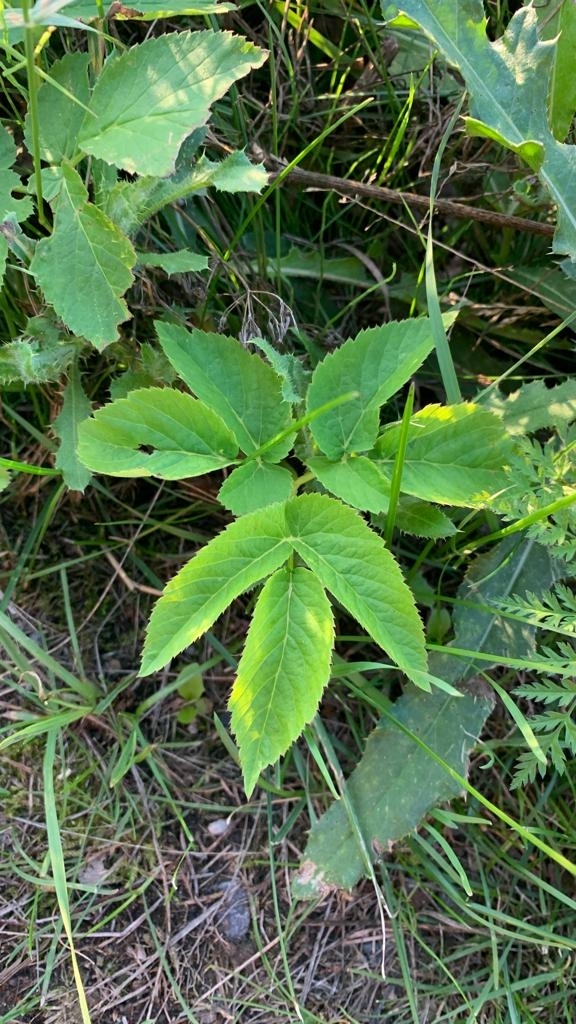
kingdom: Plantae
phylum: Tracheophyta
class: Magnoliopsida
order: Apiales
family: Apiaceae
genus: Aegopodium
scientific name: Aegopodium podagraria
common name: Ground-elder
